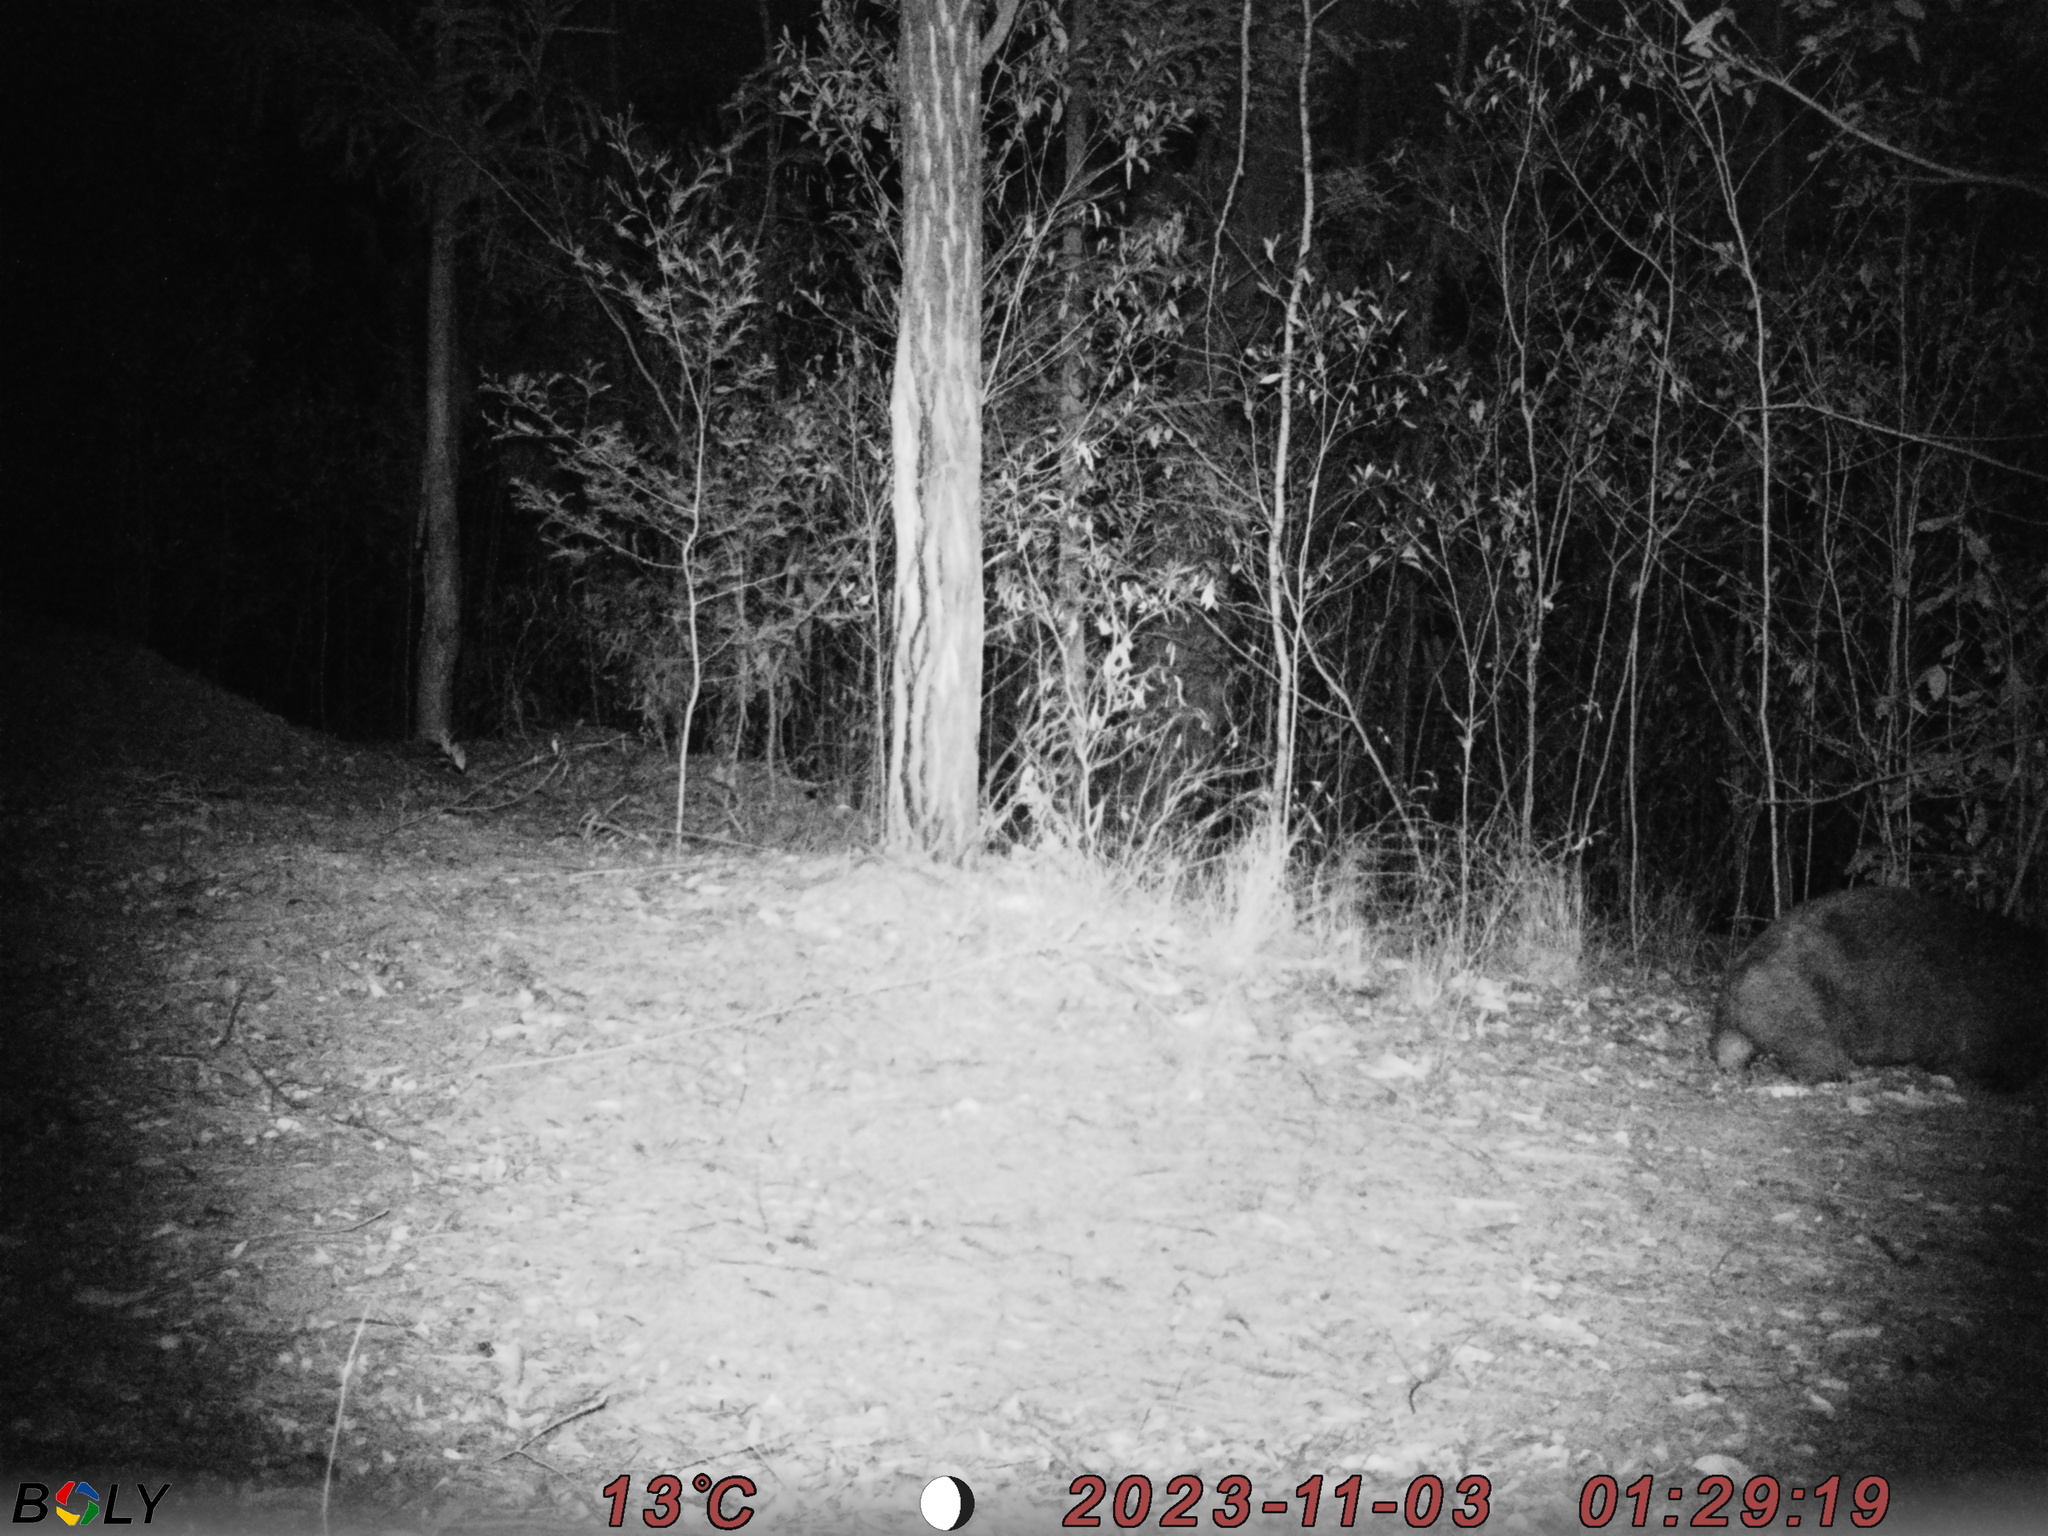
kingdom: Animalia
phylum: Chordata
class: Mammalia
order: Diprotodontia
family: Vombatidae
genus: Vombatus
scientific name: Vombatus ursinus
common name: Common wombat
